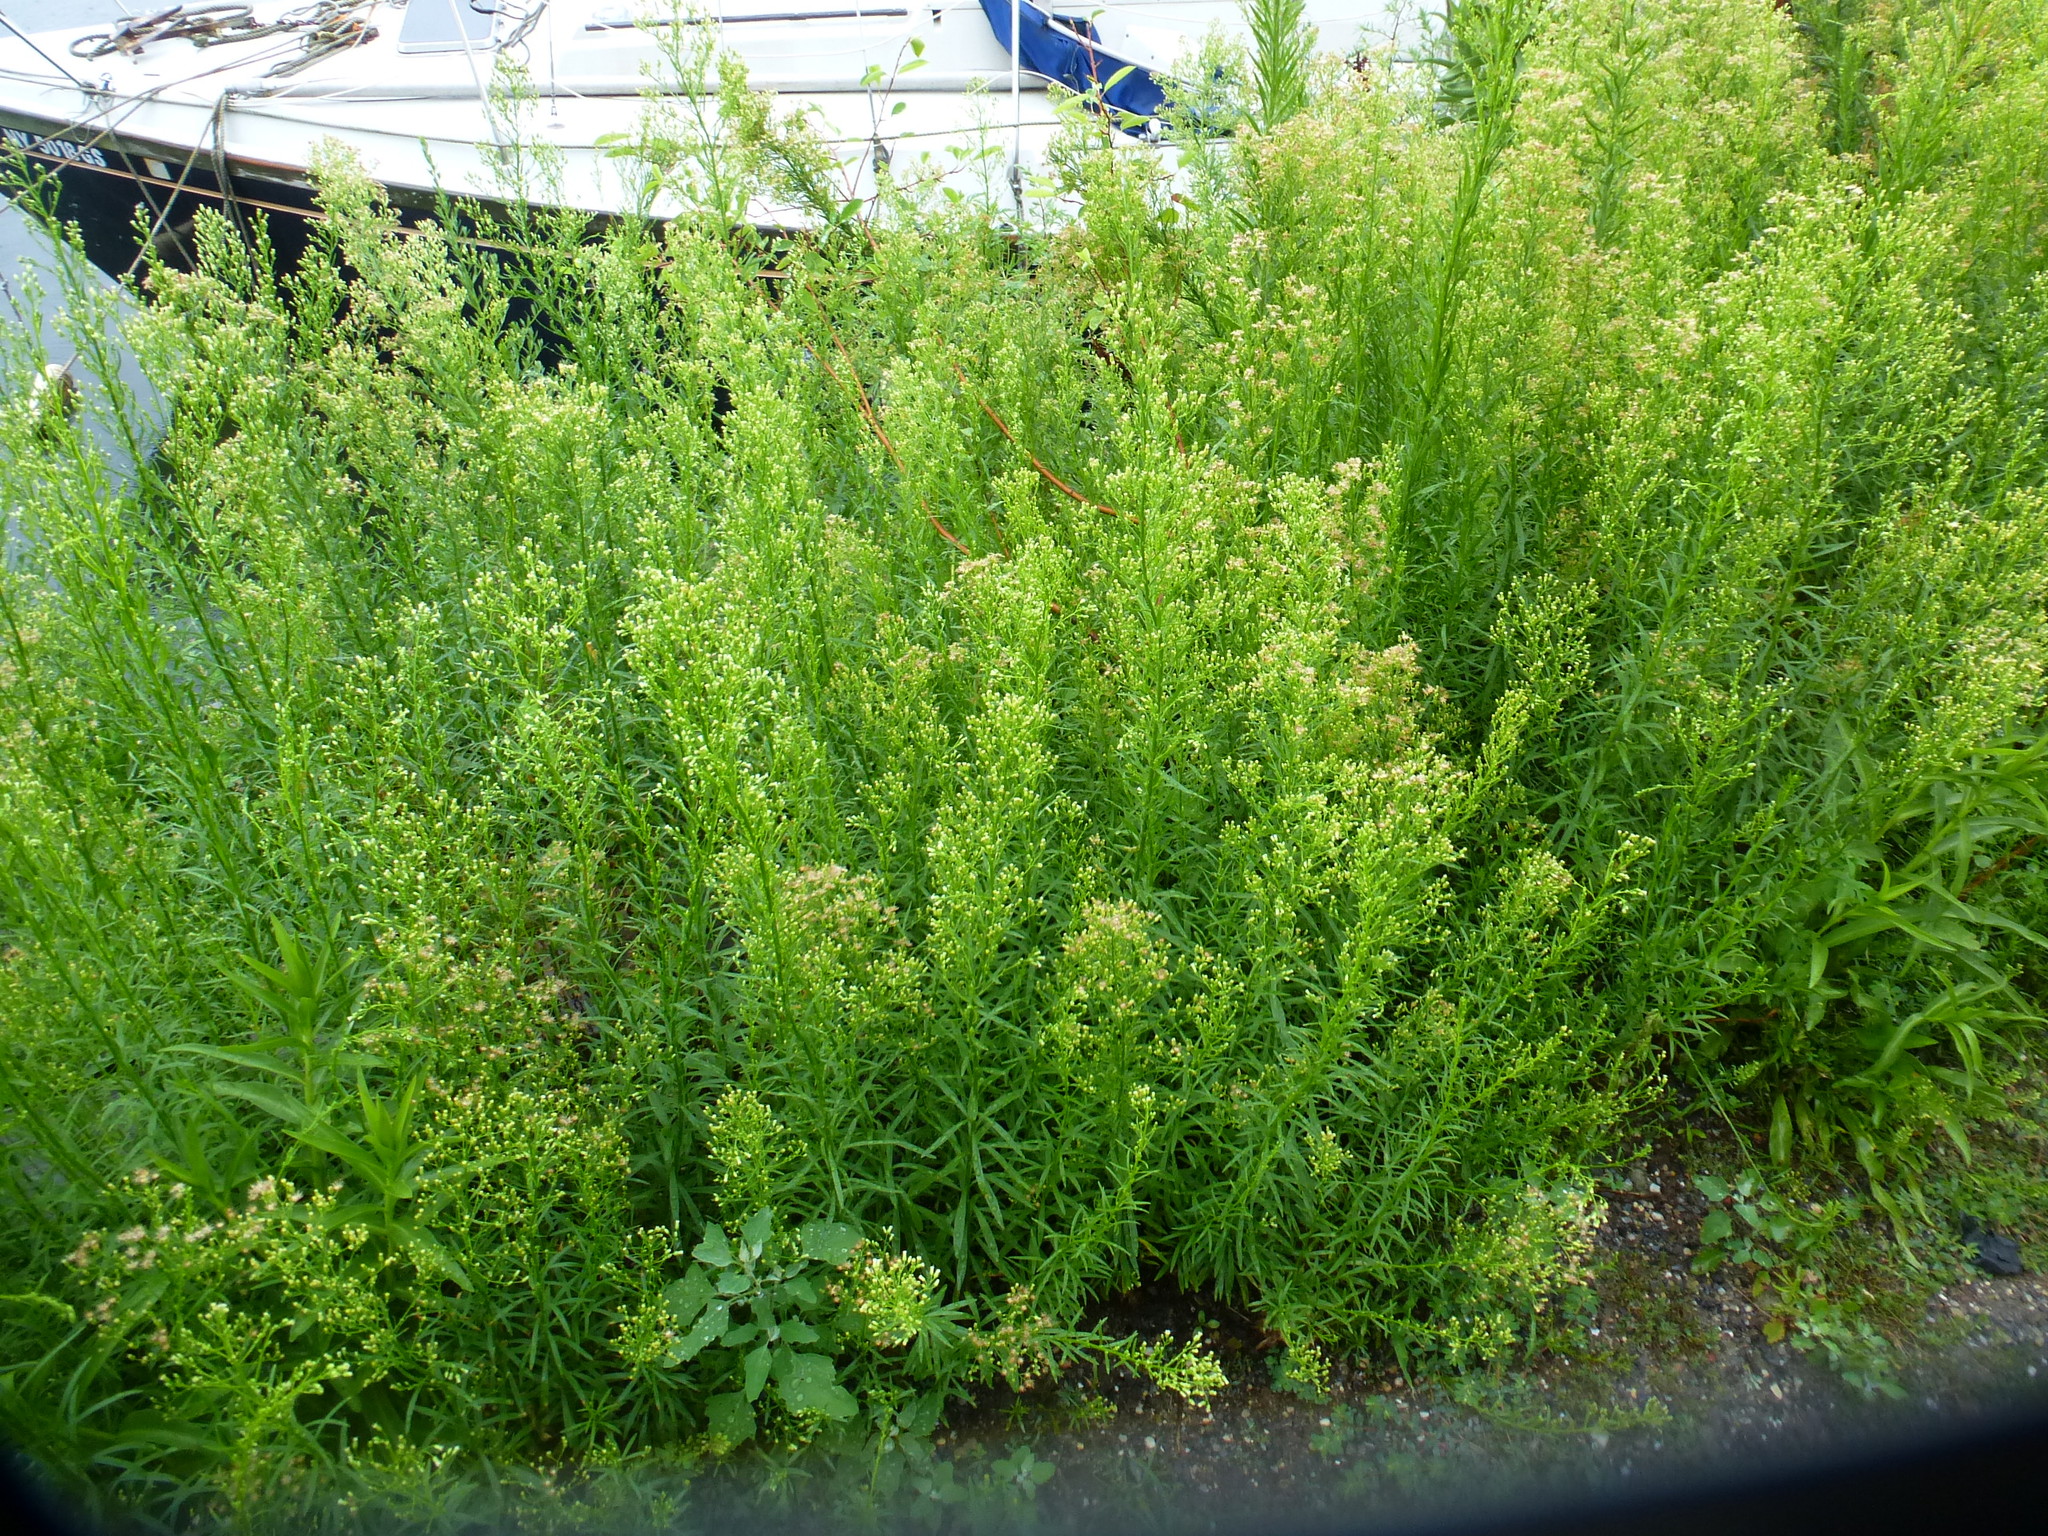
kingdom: Plantae
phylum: Tracheophyta
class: Magnoliopsida
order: Asterales
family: Asteraceae
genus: Erigeron
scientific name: Erigeron canadensis
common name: Canadian fleabane
